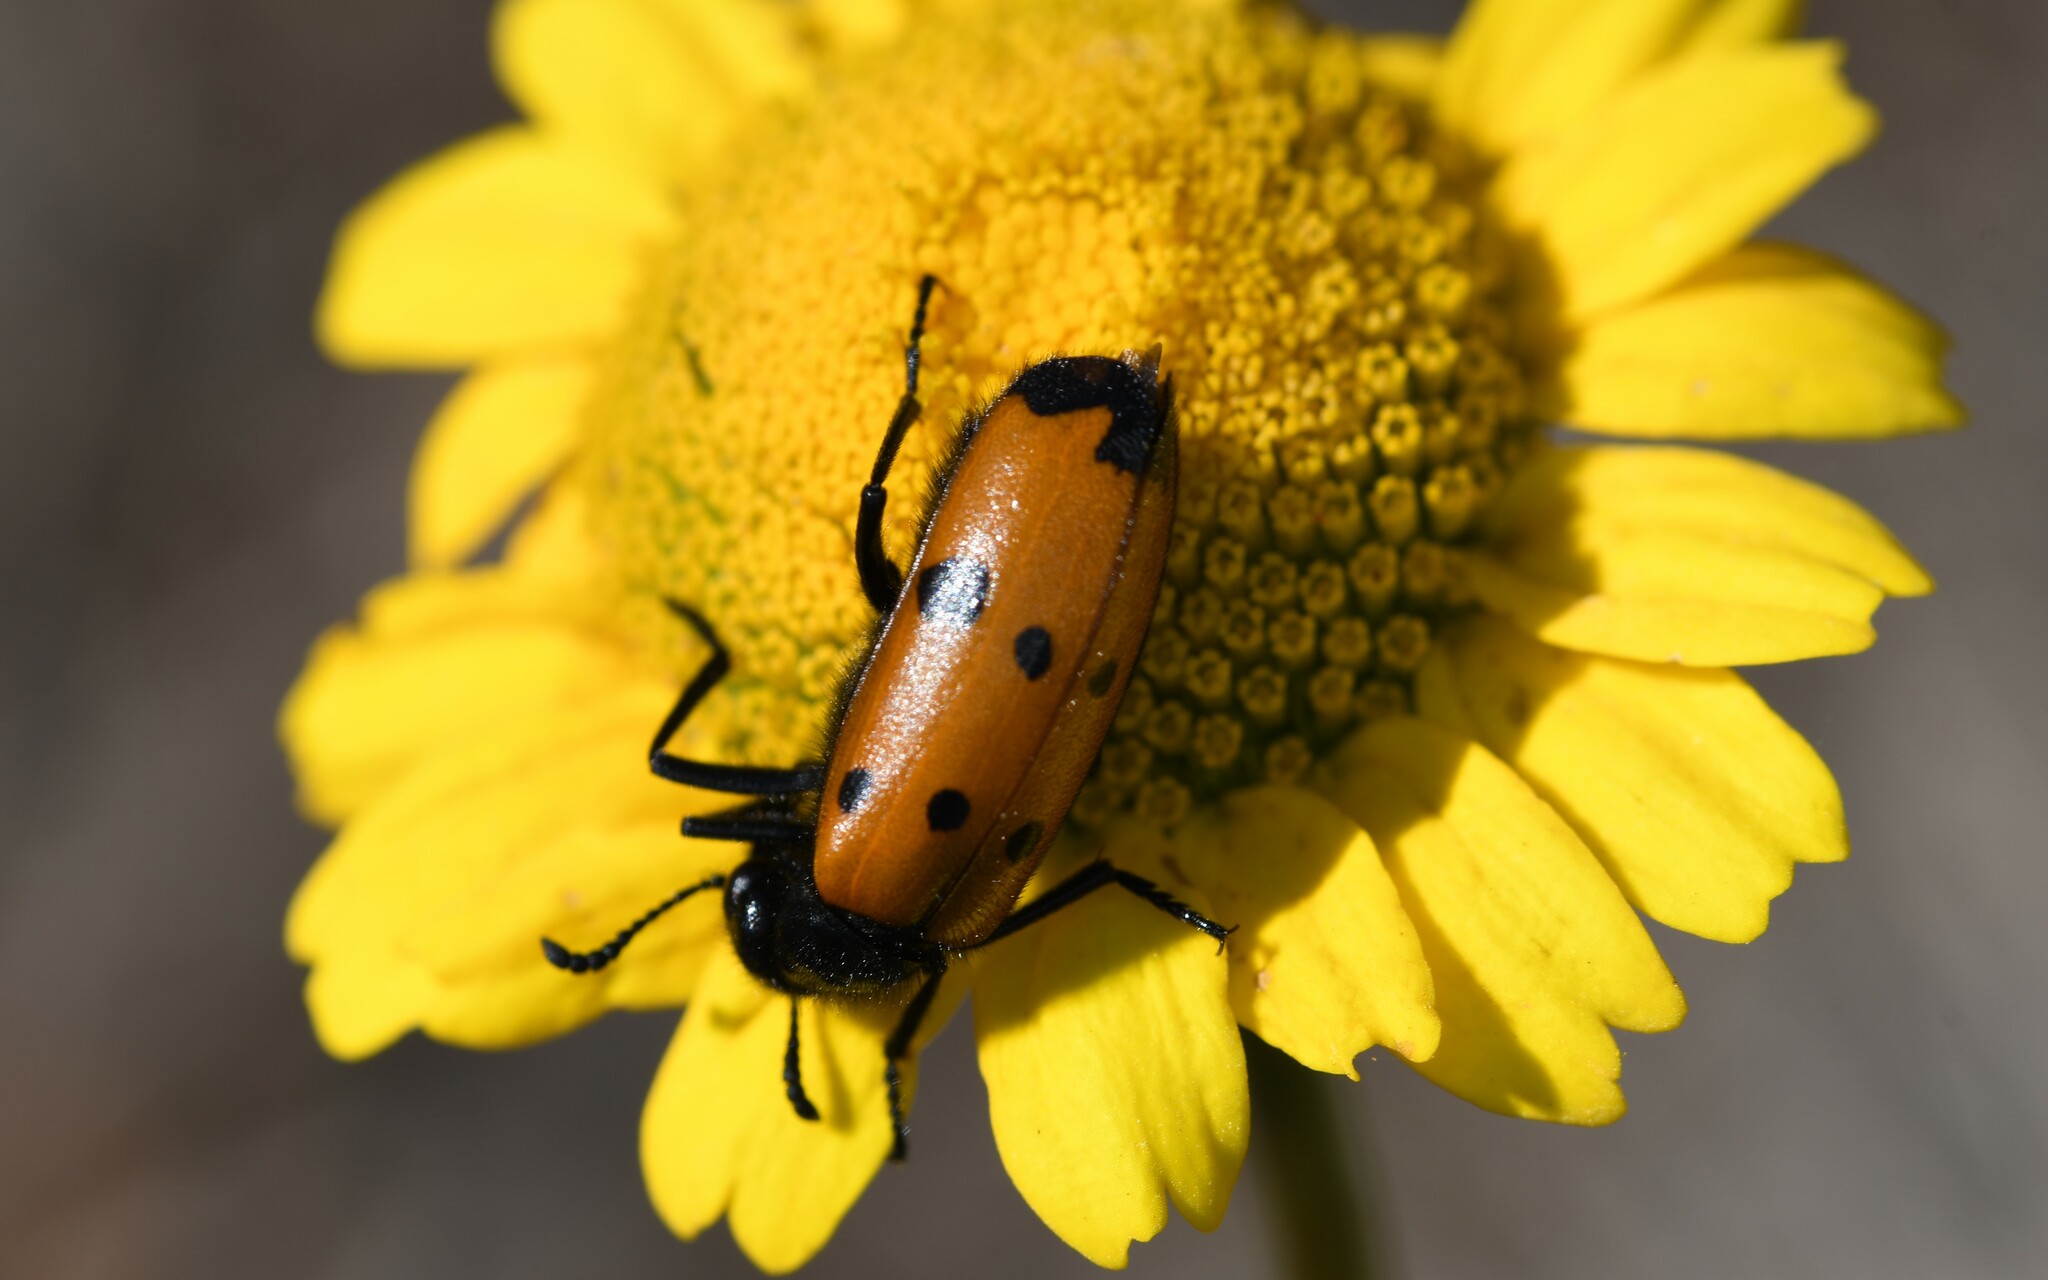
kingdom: Animalia
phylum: Arthropoda
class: Insecta
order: Coleoptera
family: Meloidae
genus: Mylabris
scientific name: Mylabris quadripunctata
